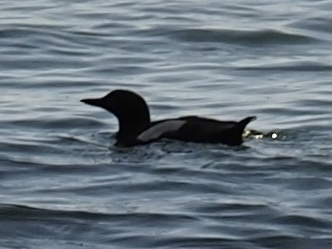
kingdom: Animalia
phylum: Chordata
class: Aves
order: Charadriiformes
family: Alcidae
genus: Cepphus
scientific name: Cepphus columba
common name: Pigeon guillemot
